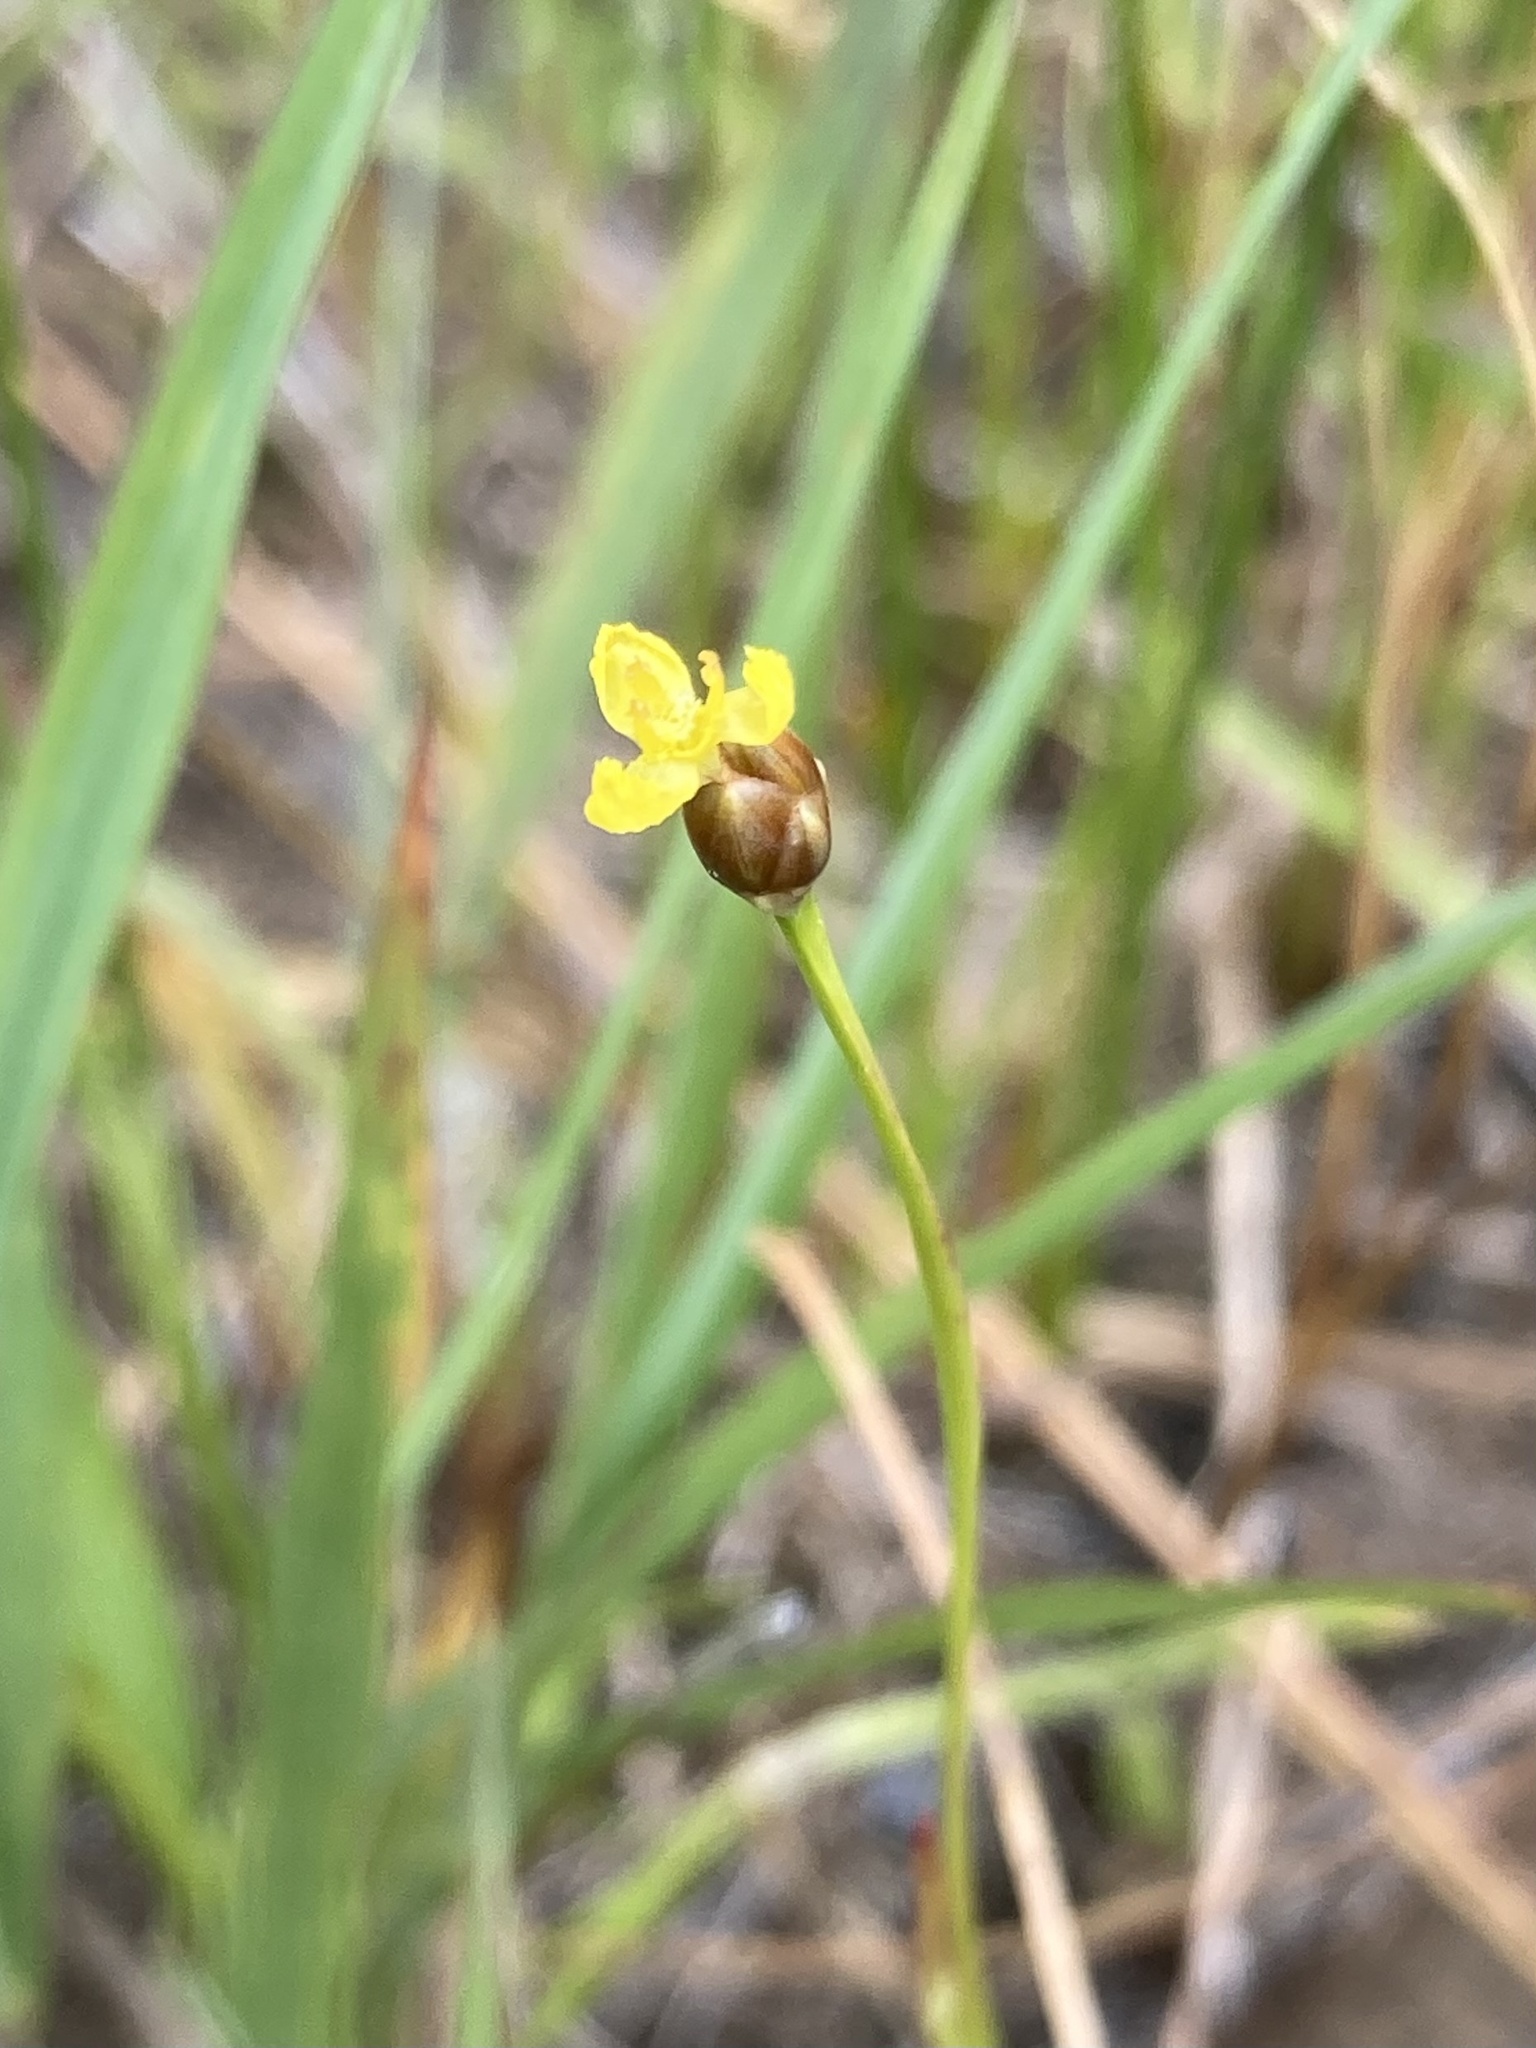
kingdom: Plantae
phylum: Tracheophyta
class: Liliopsida
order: Poales
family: Xyridaceae
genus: Xyris
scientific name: Xyris torta
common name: Common yelloweyed grass
